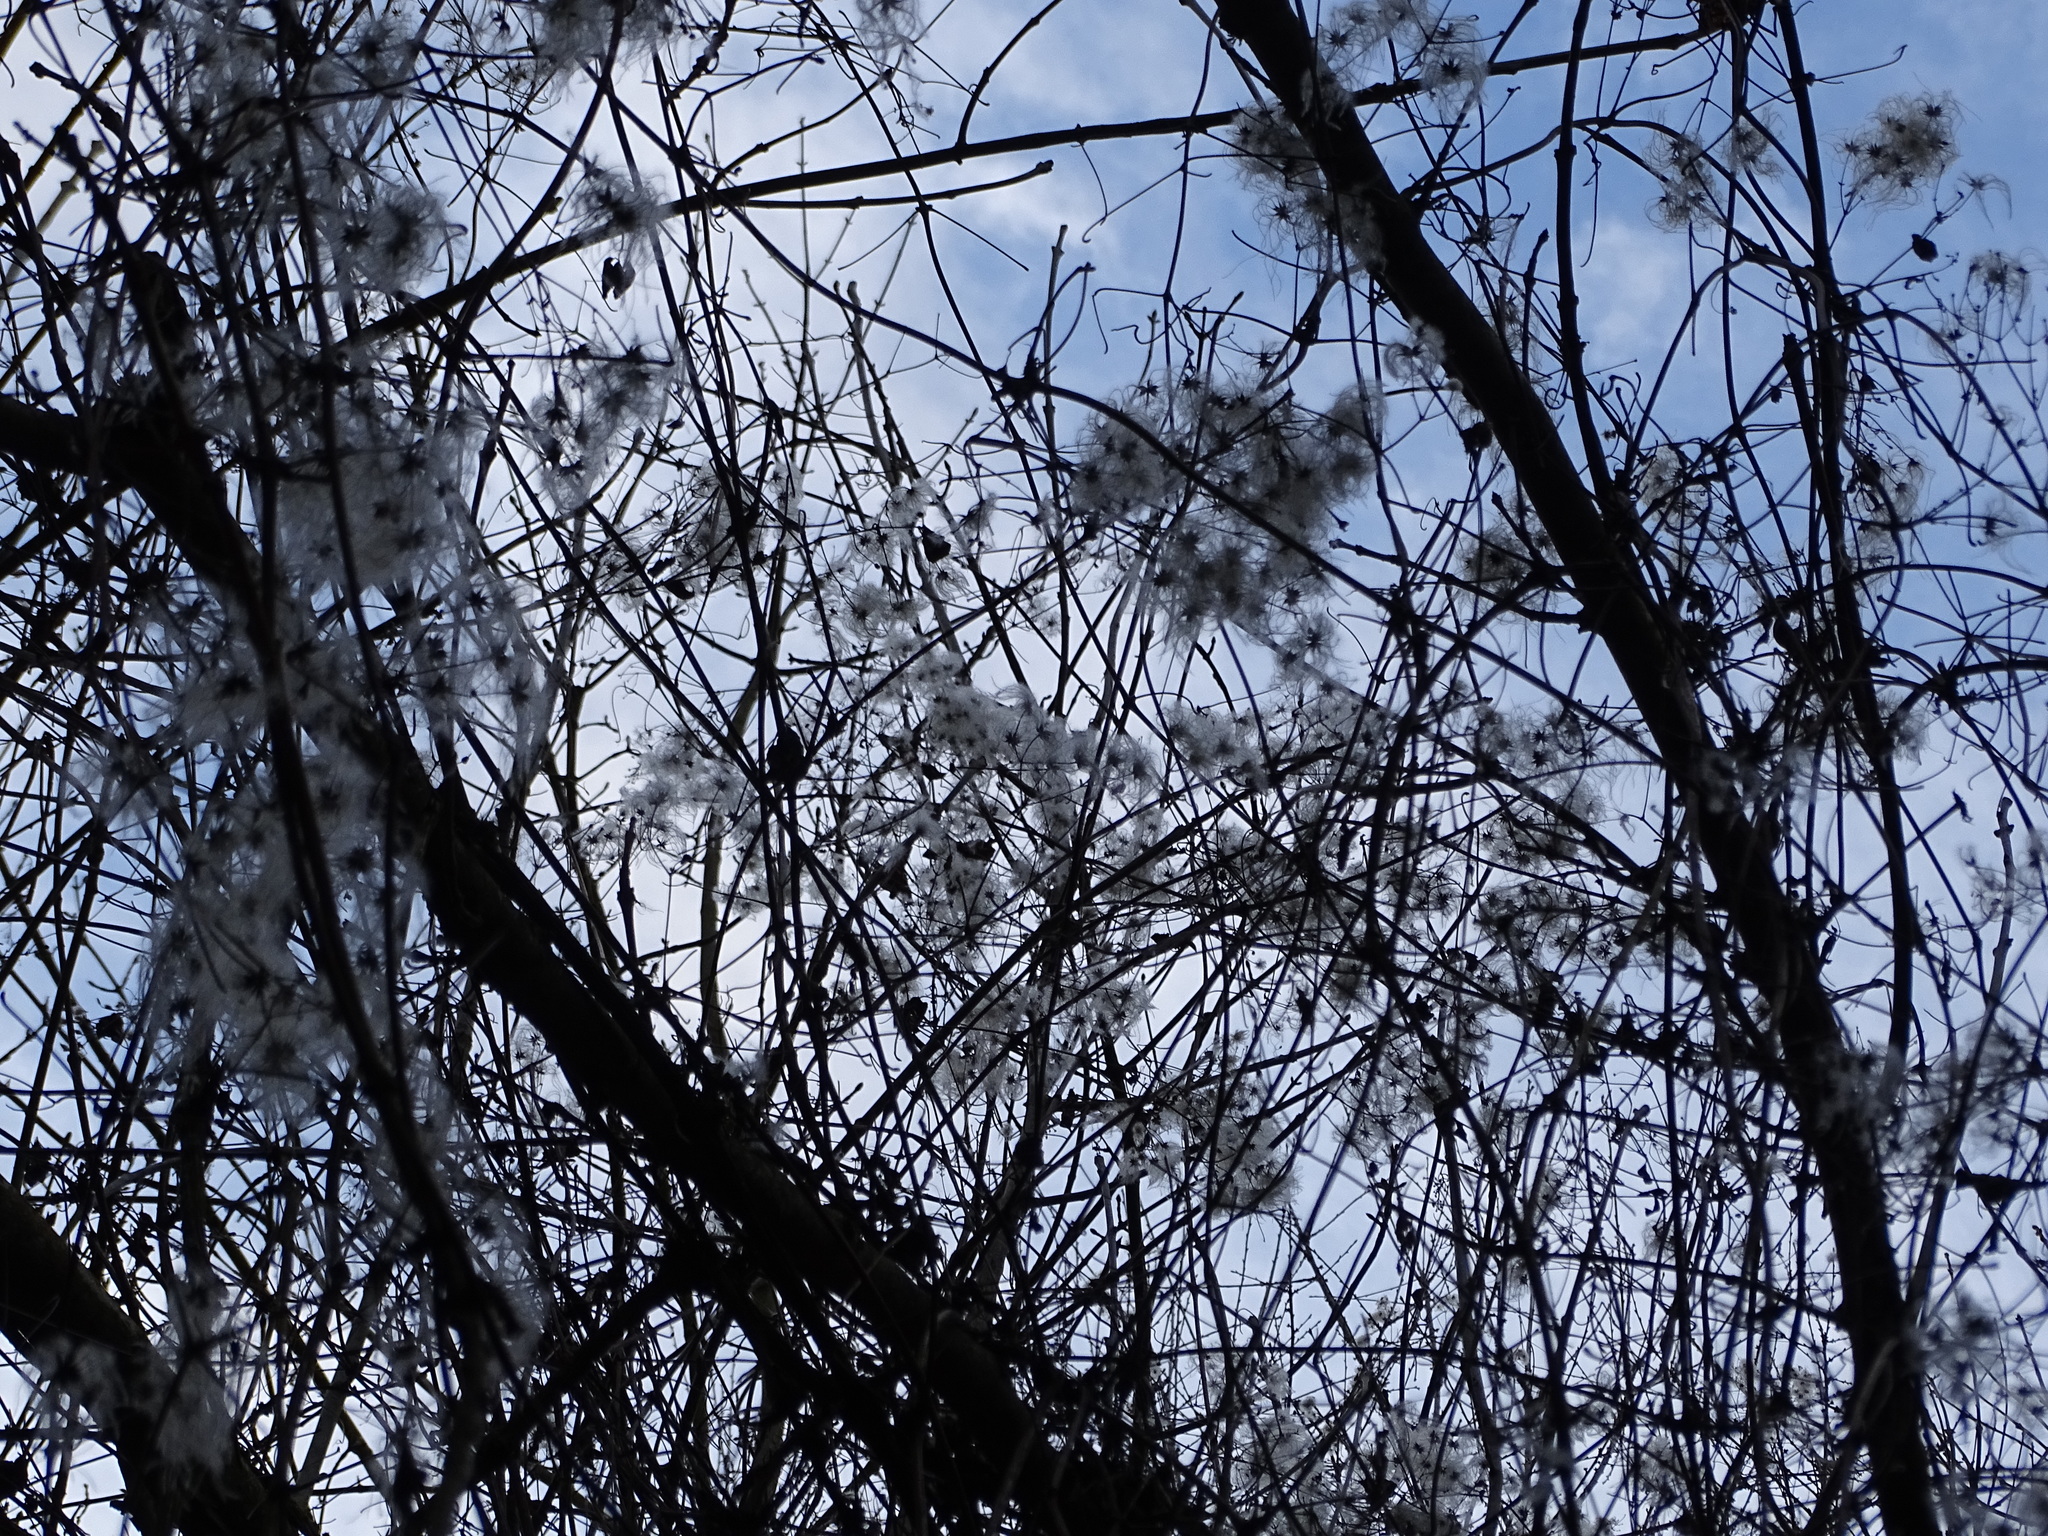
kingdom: Plantae
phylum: Tracheophyta
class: Magnoliopsida
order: Ranunculales
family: Ranunculaceae
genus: Clematis
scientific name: Clematis vitalba
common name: Evergreen clematis
